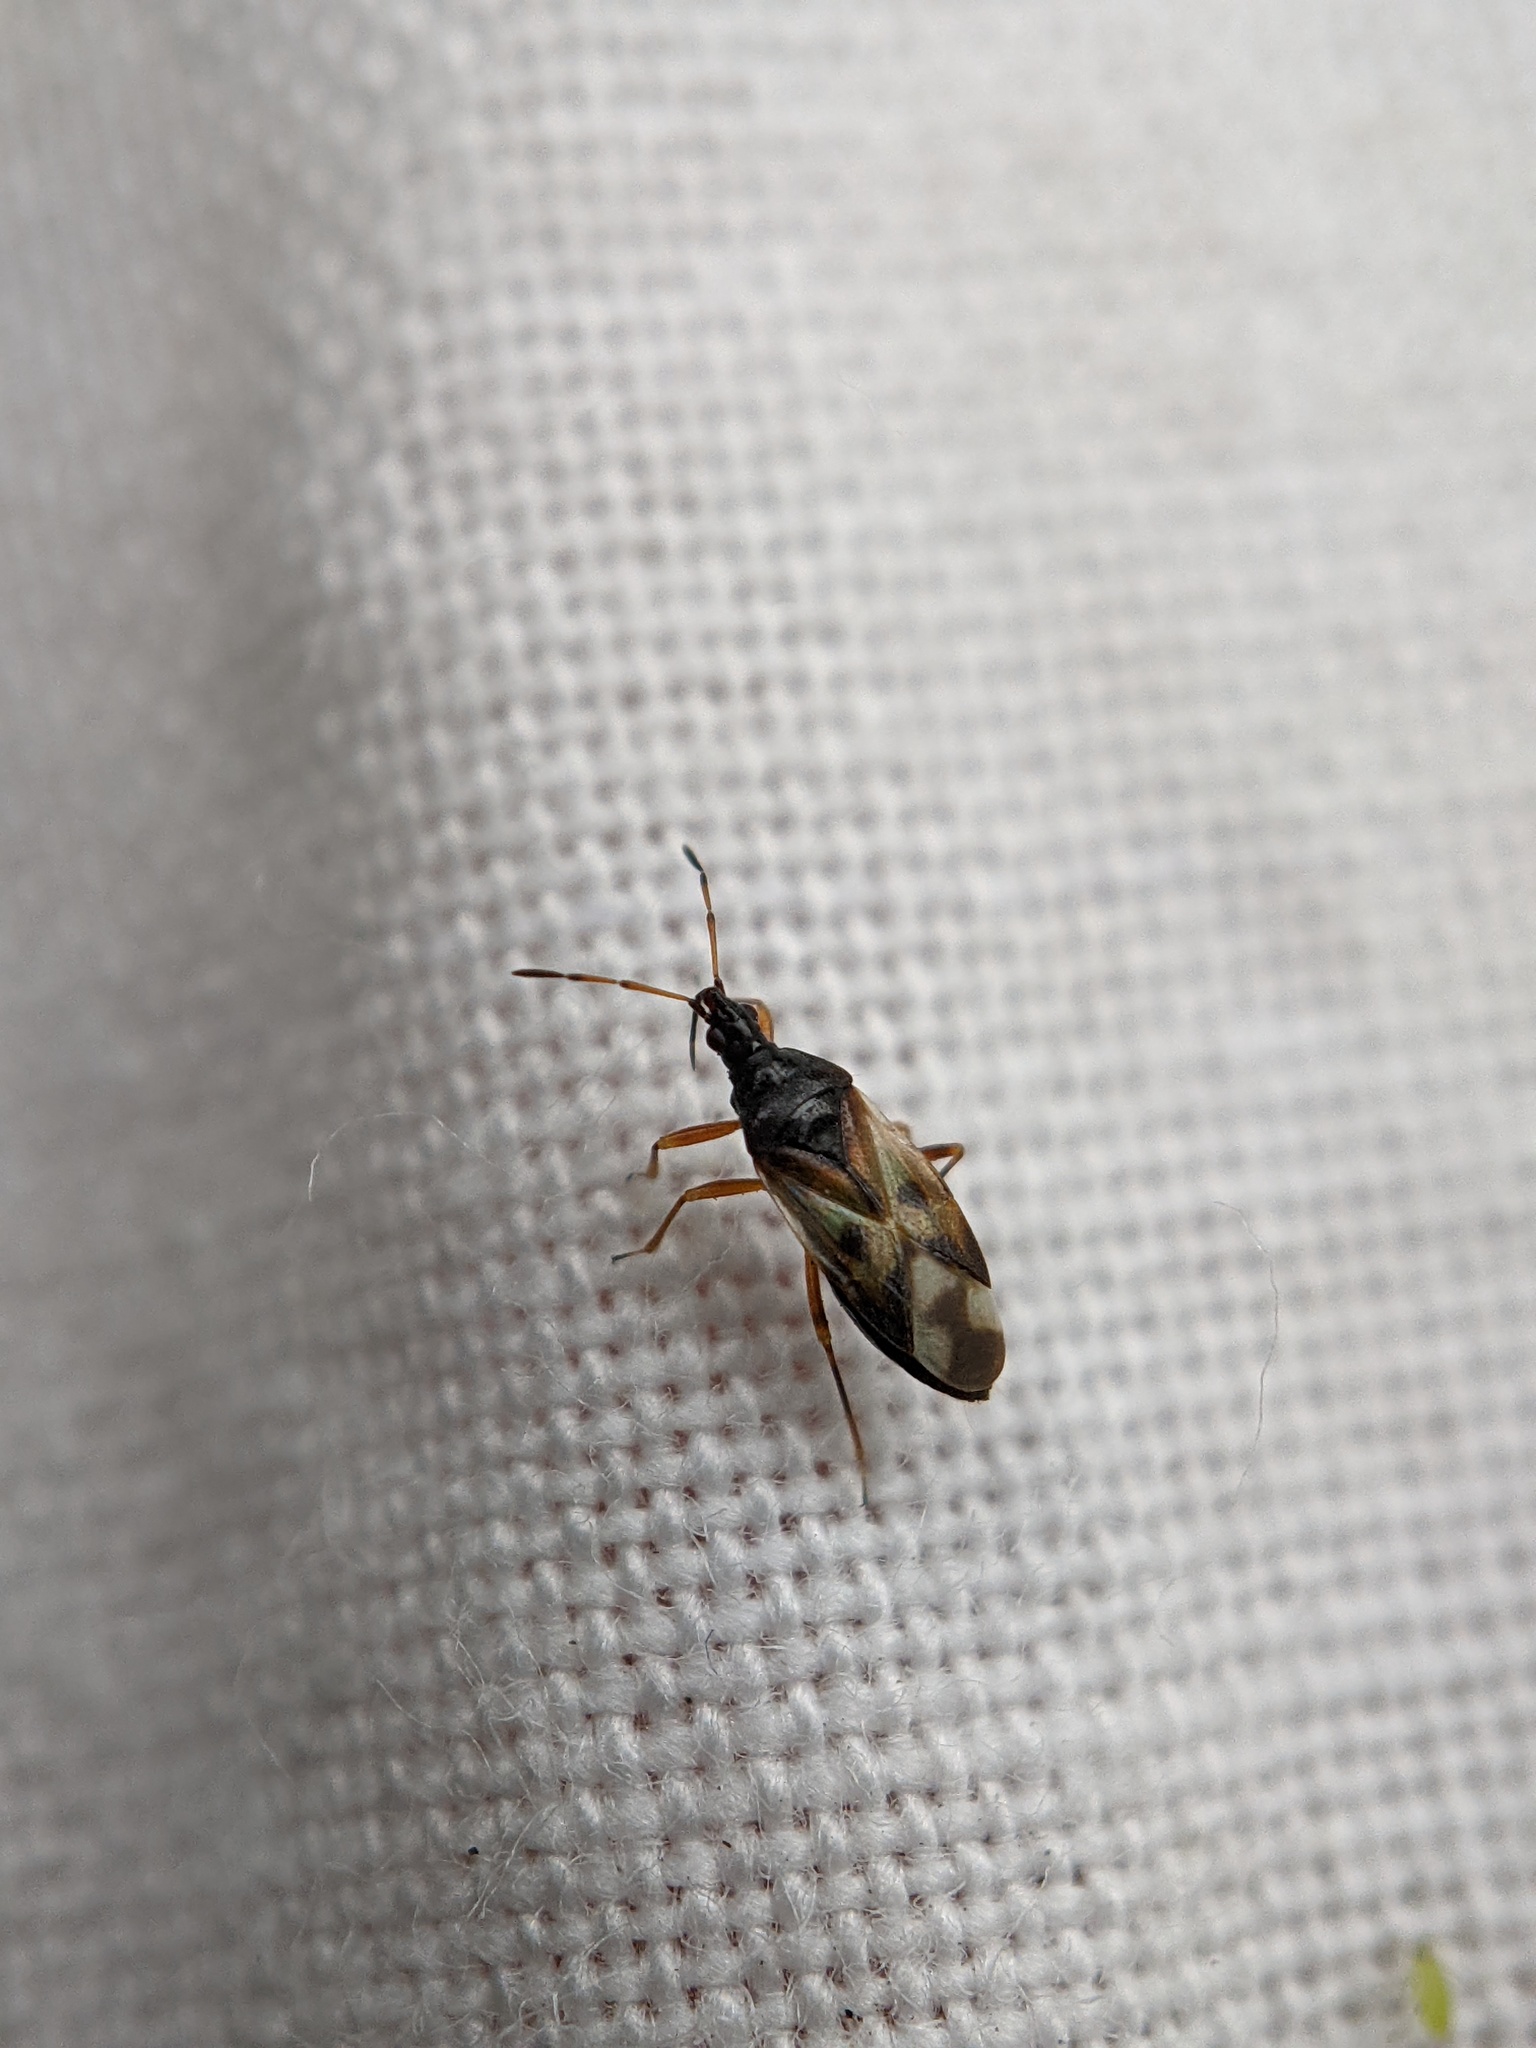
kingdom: Animalia
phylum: Arthropoda
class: Insecta
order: Hemiptera
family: Anthocoridae
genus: Anthocoris
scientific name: Anthocoris nemorum
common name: Minute pirate bug
